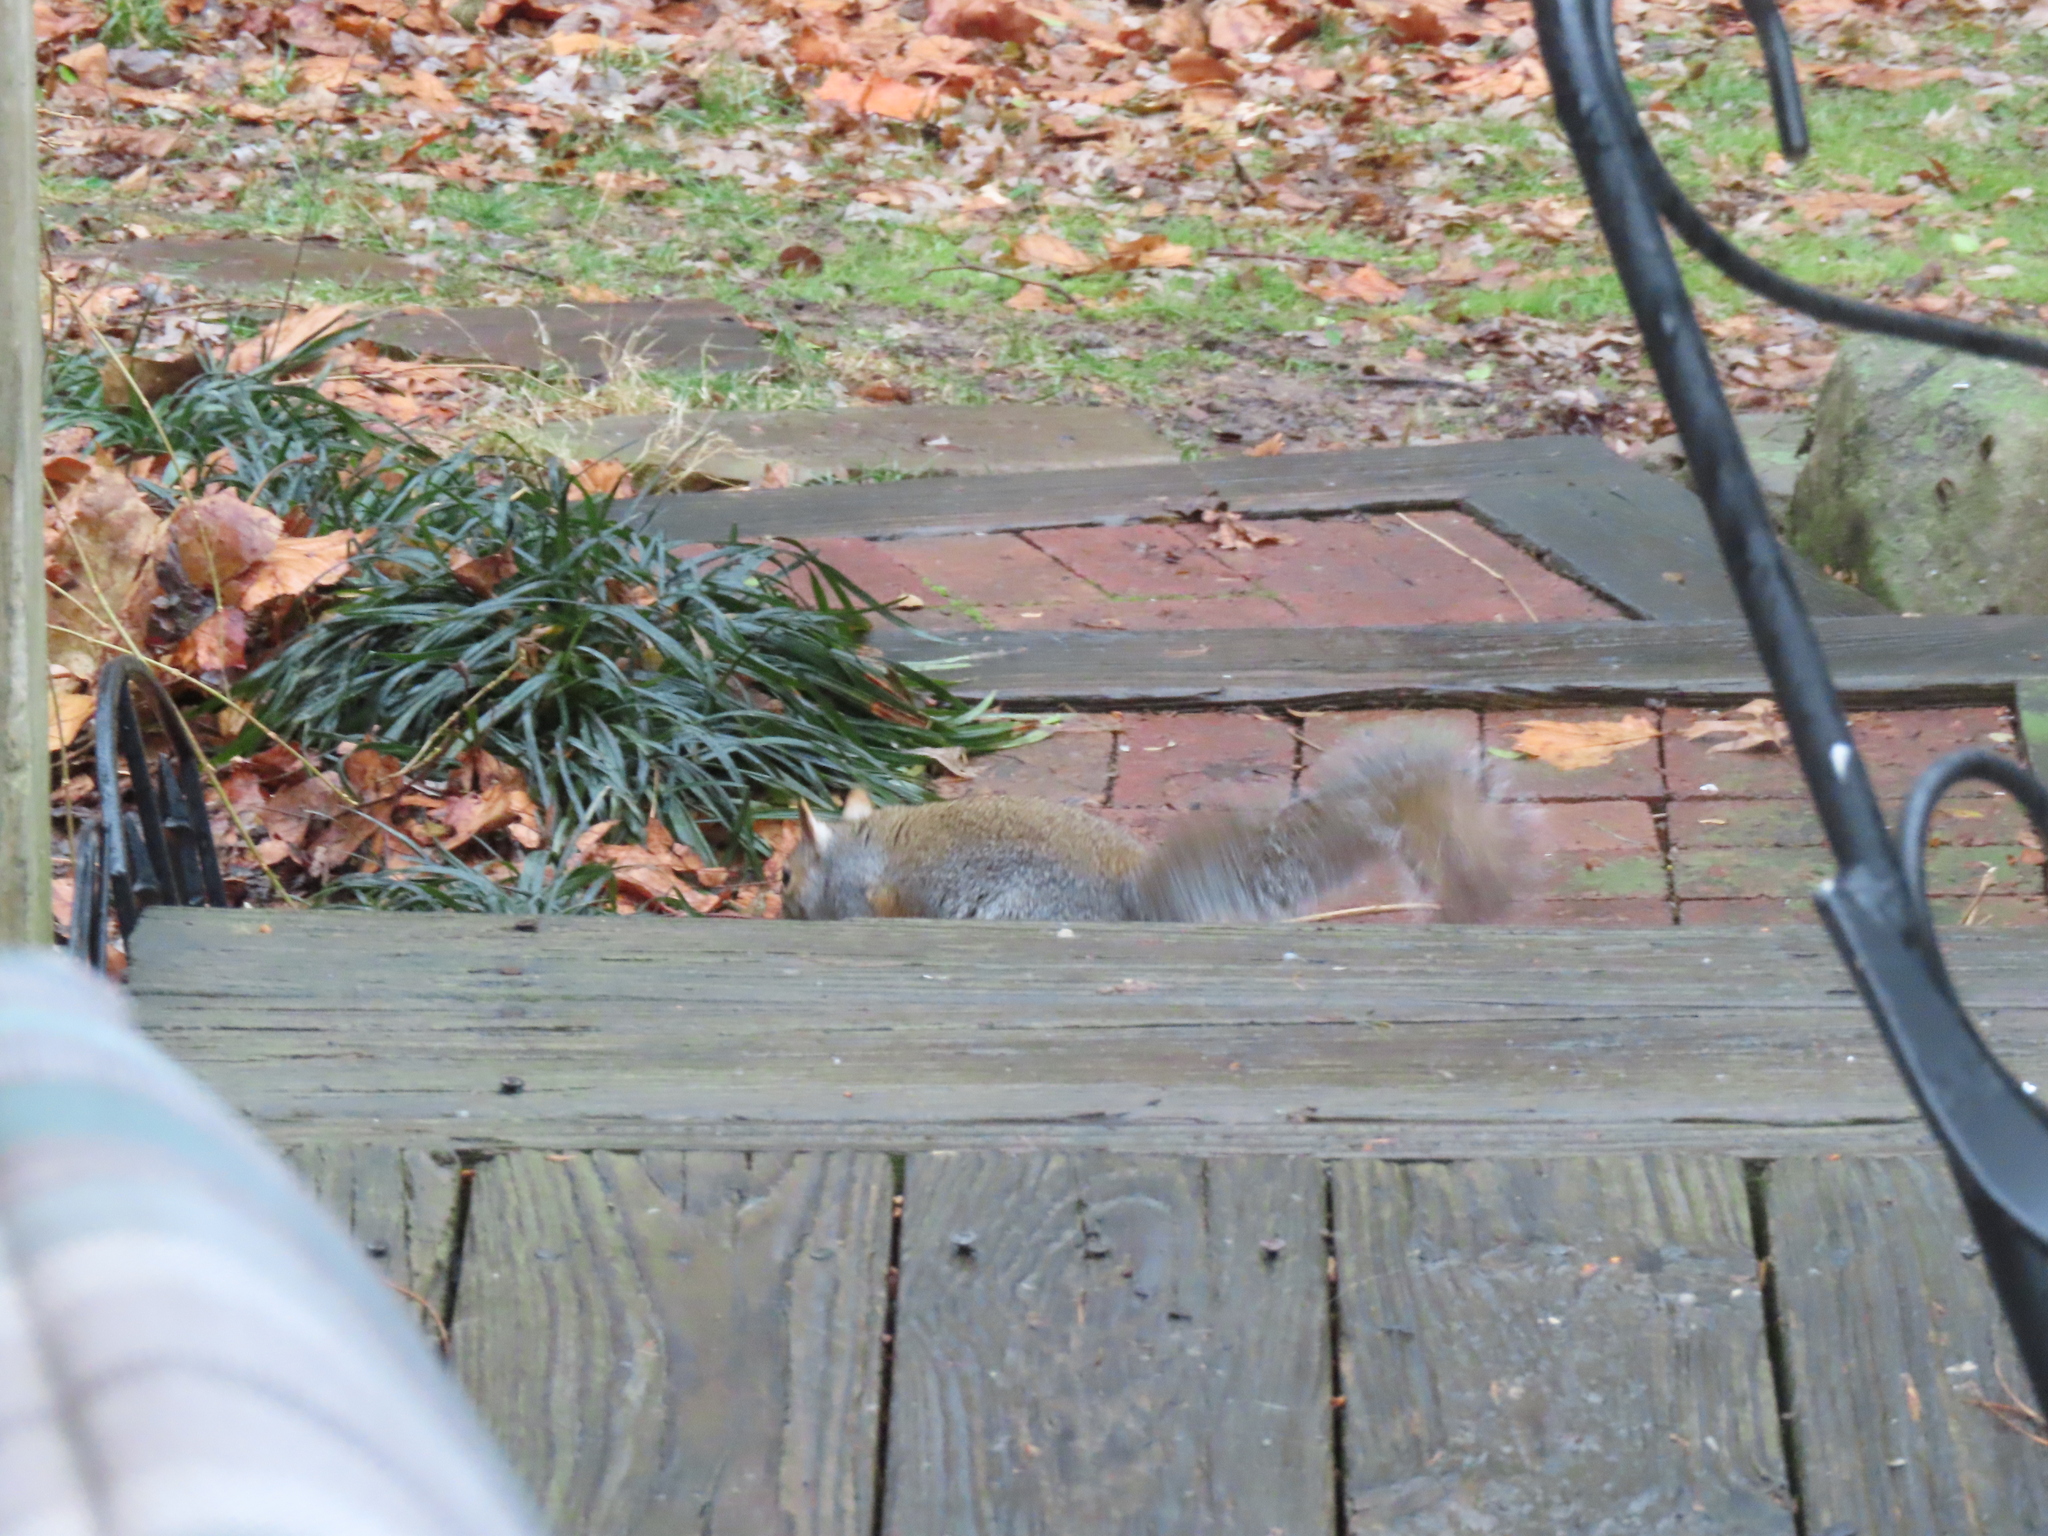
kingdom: Animalia
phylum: Chordata
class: Mammalia
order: Rodentia
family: Sciuridae
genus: Sciurus
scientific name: Sciurus carolinensis
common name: Eastern gray squirrel
